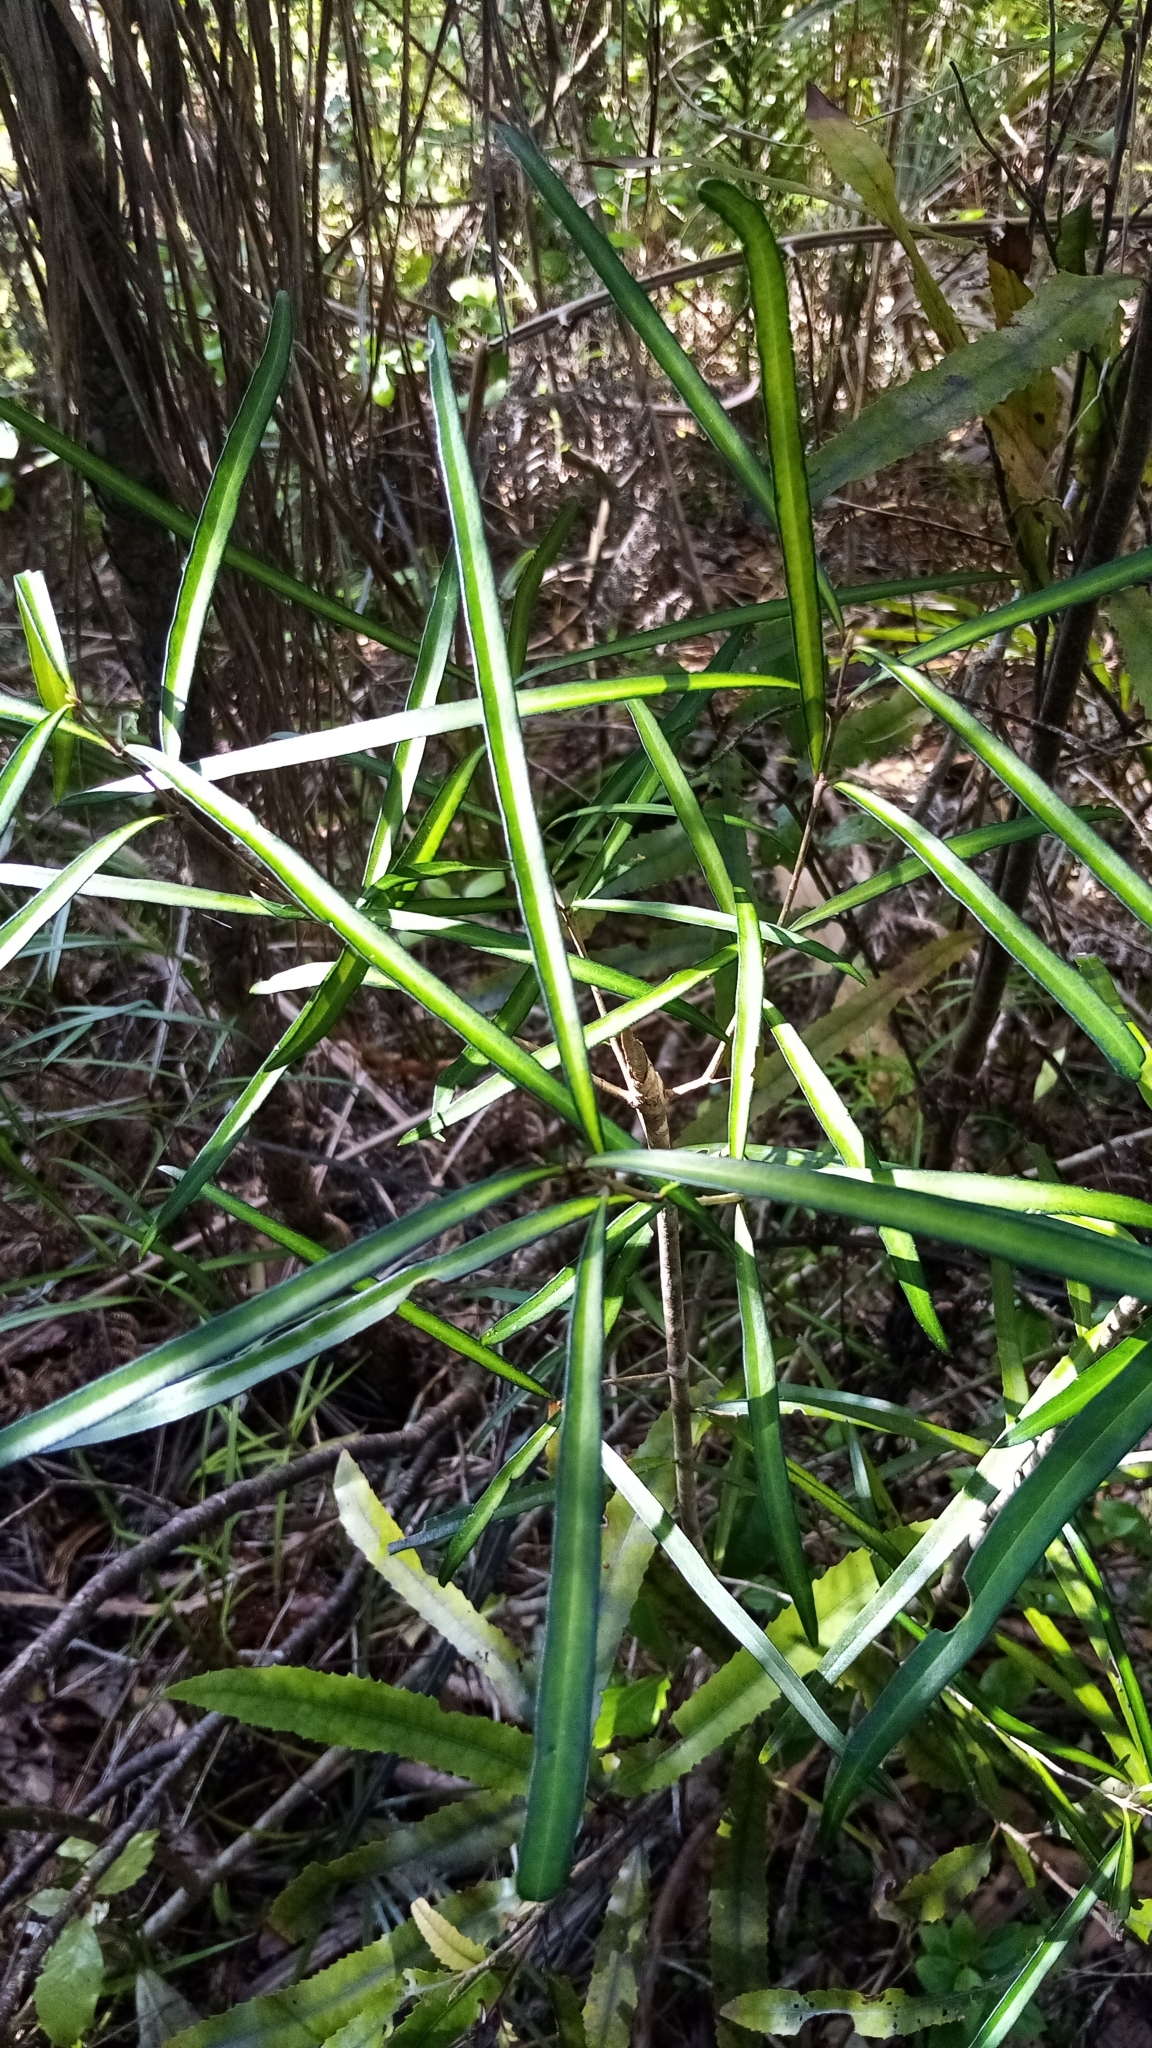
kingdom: Plantae
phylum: Tracheophyta
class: Magnoliopsida
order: Lamiales
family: Oleaceae
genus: Nestegis
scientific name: Nestegis lanceolata
